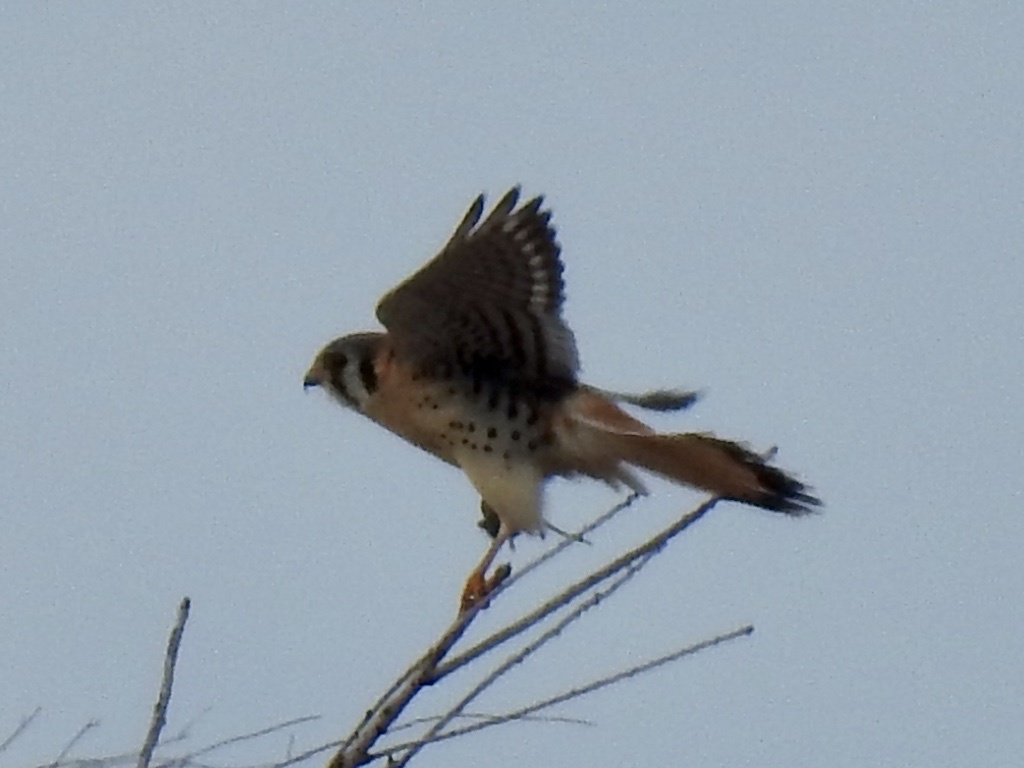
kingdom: Animalia
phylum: Chordata
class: Aves
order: Falconiformes
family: Falconidae
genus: Falco
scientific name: Falco sparverius
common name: American kestrel
